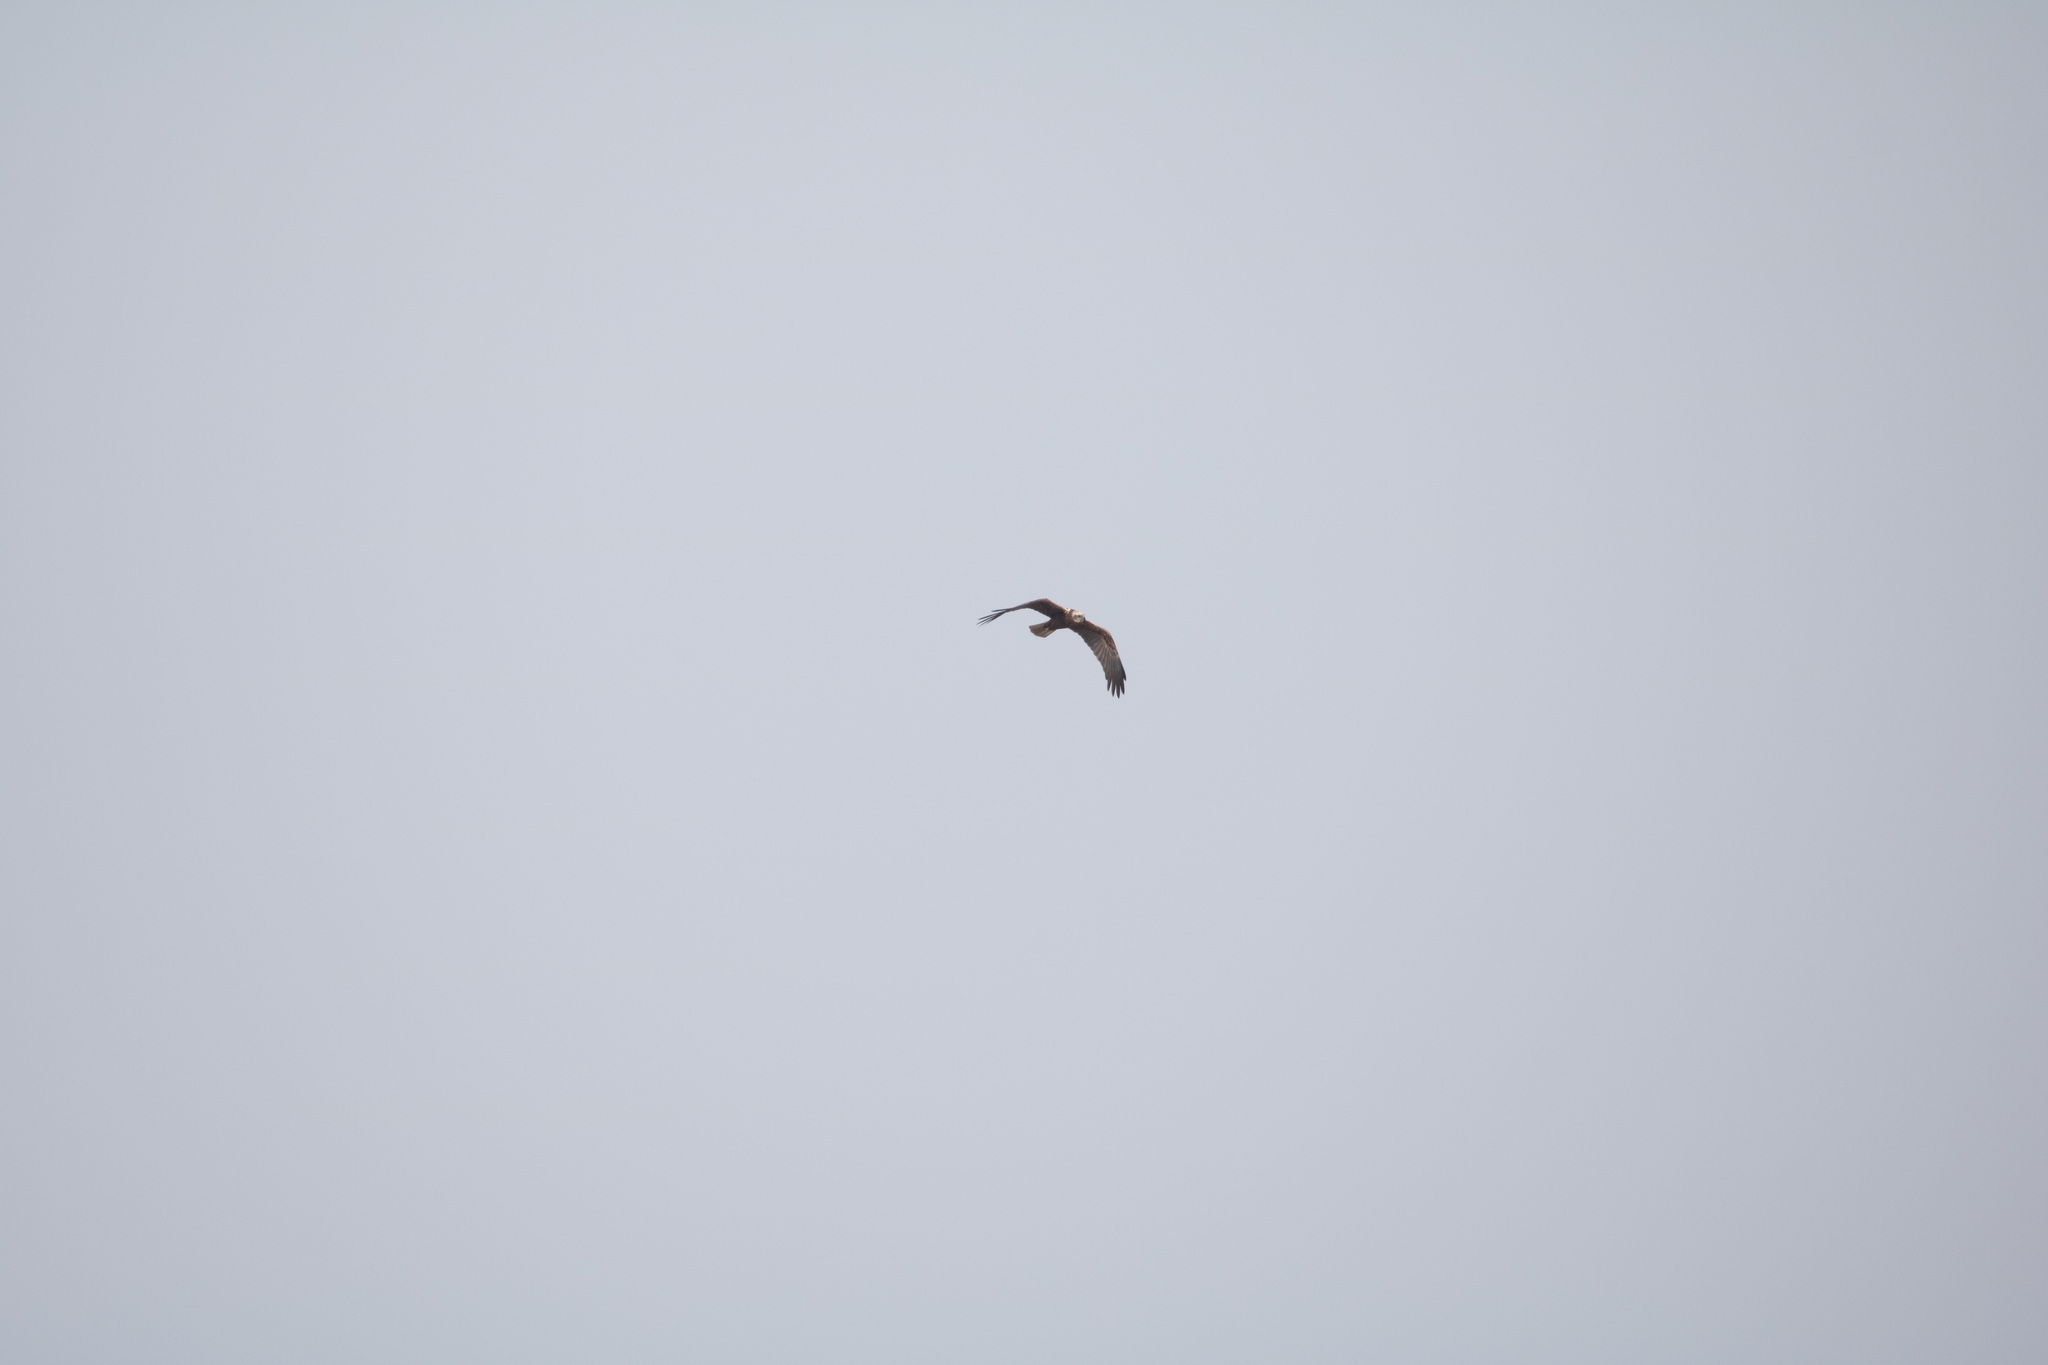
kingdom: Animalia
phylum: Chordata
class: Aves
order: Accipitriformes
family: Accipitridae
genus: Circus
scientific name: Circus aeruginosus
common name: Western marsh harrier
